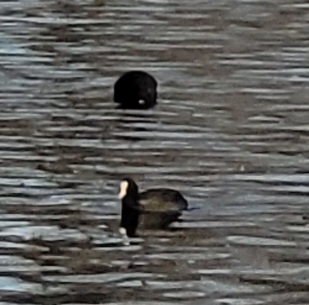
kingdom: Animalia
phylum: Chordata
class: Aves
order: Gruiformes
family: Rallidae
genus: Fulica
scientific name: Fulica atra
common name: Eurasian coot
